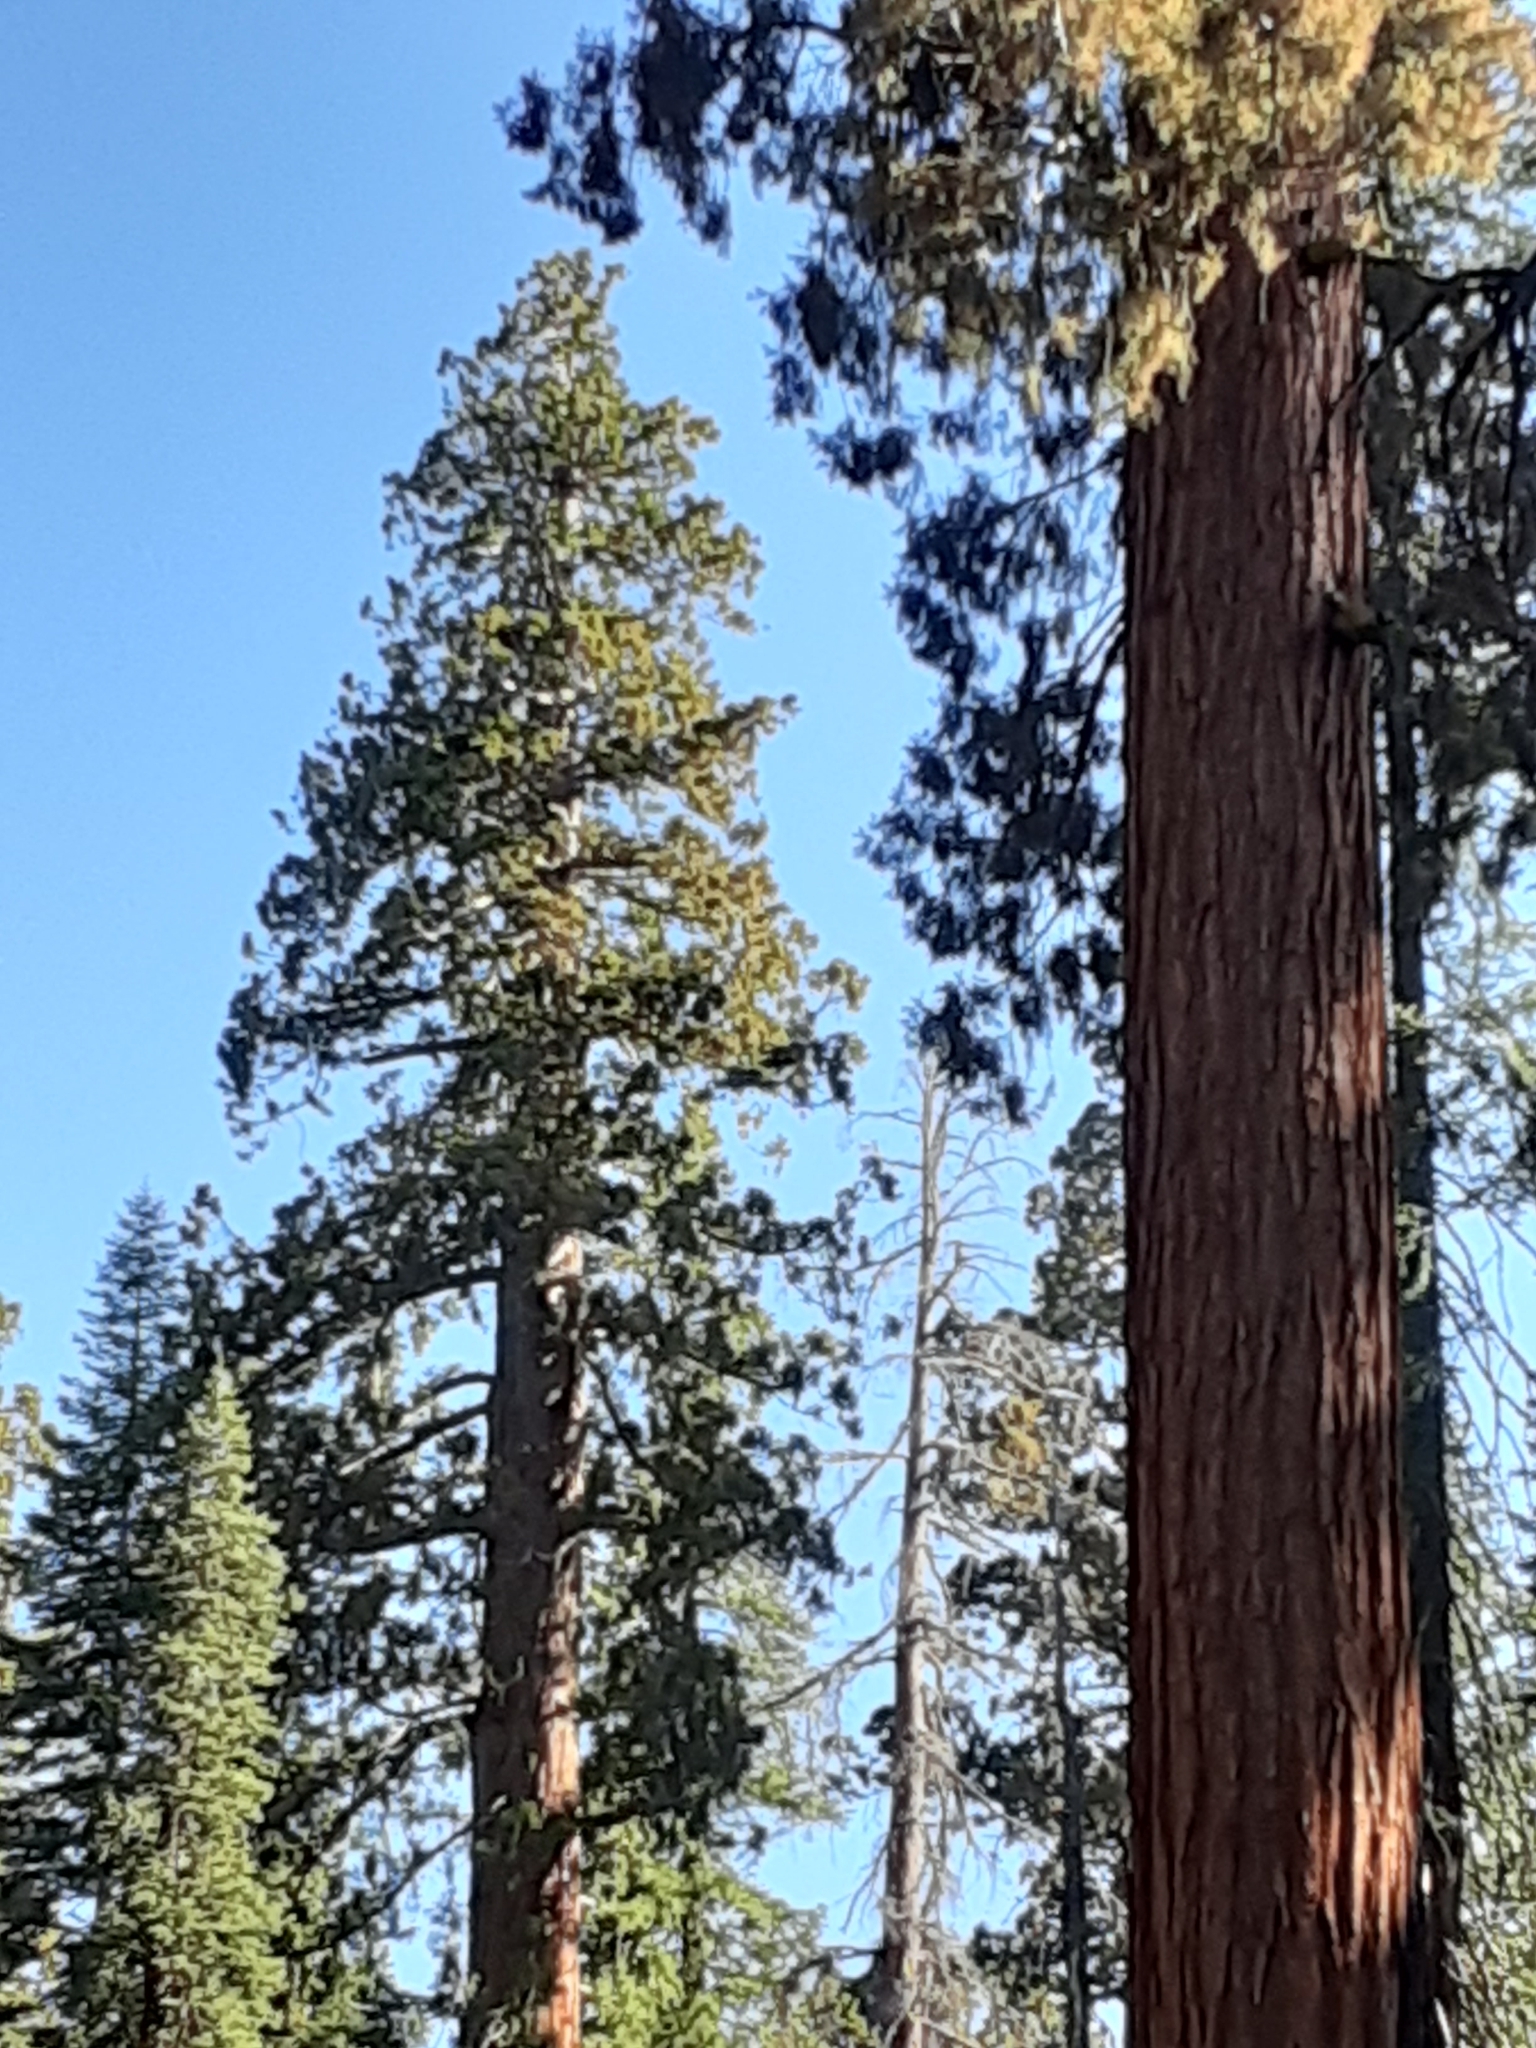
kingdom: Plantae
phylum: Tracheophyta
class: Pinopsida
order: Pinales
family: Cupressaceae
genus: Sequoiadendron
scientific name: Sequoiadendron giganteum
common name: Wellingtonia
